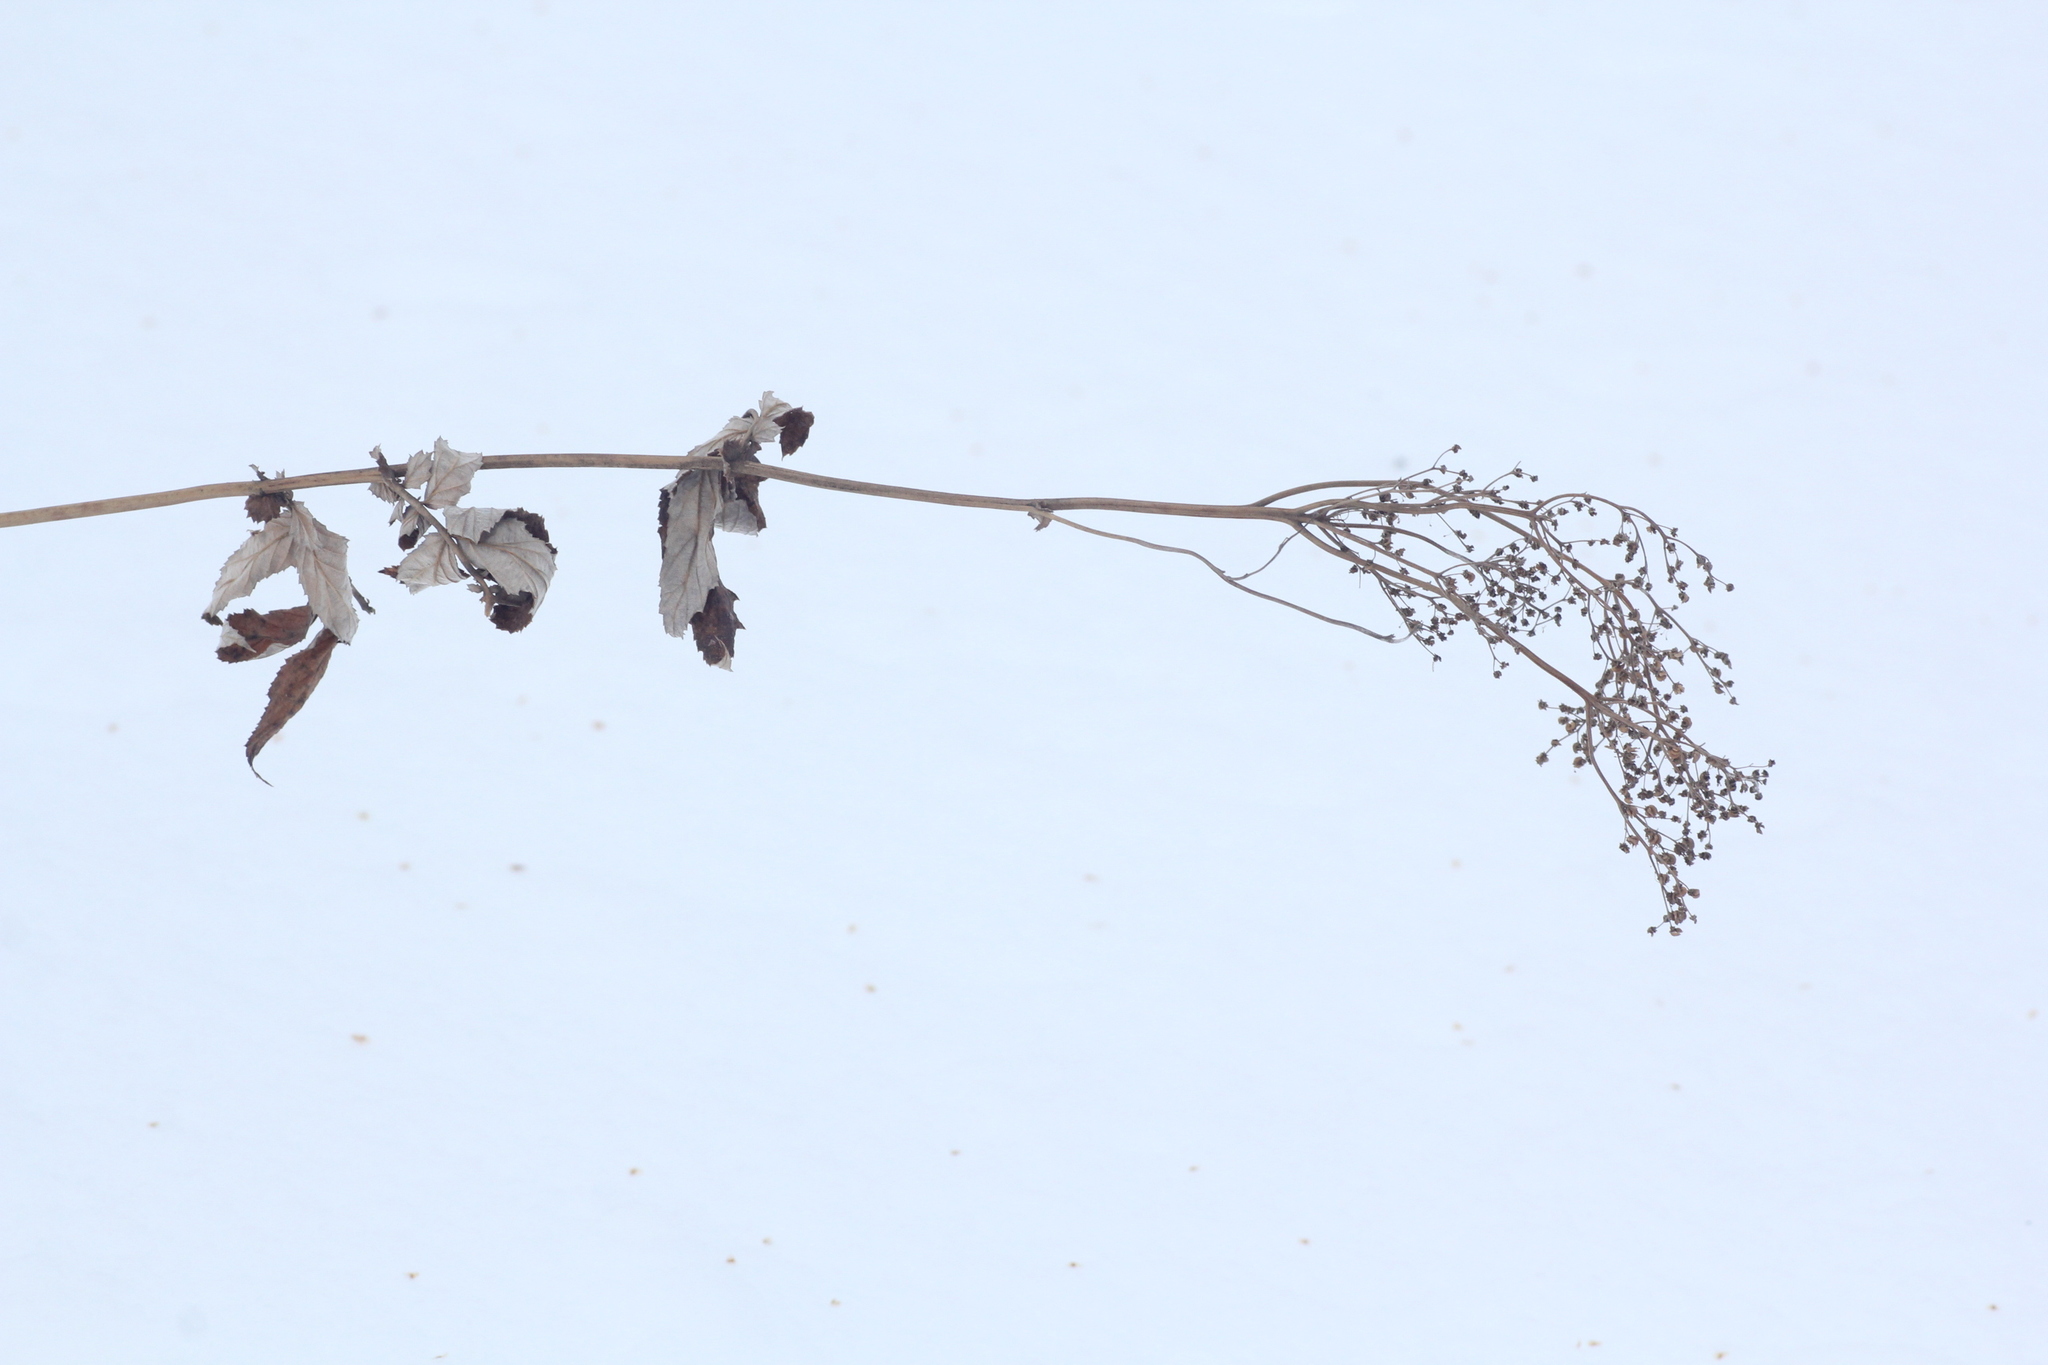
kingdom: Plantae
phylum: Tracheophyta
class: Magnoliopsida
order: Rosales
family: Rosaceae
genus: Filipendula
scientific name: Filipendula ulmaria
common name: Meadowsweet
